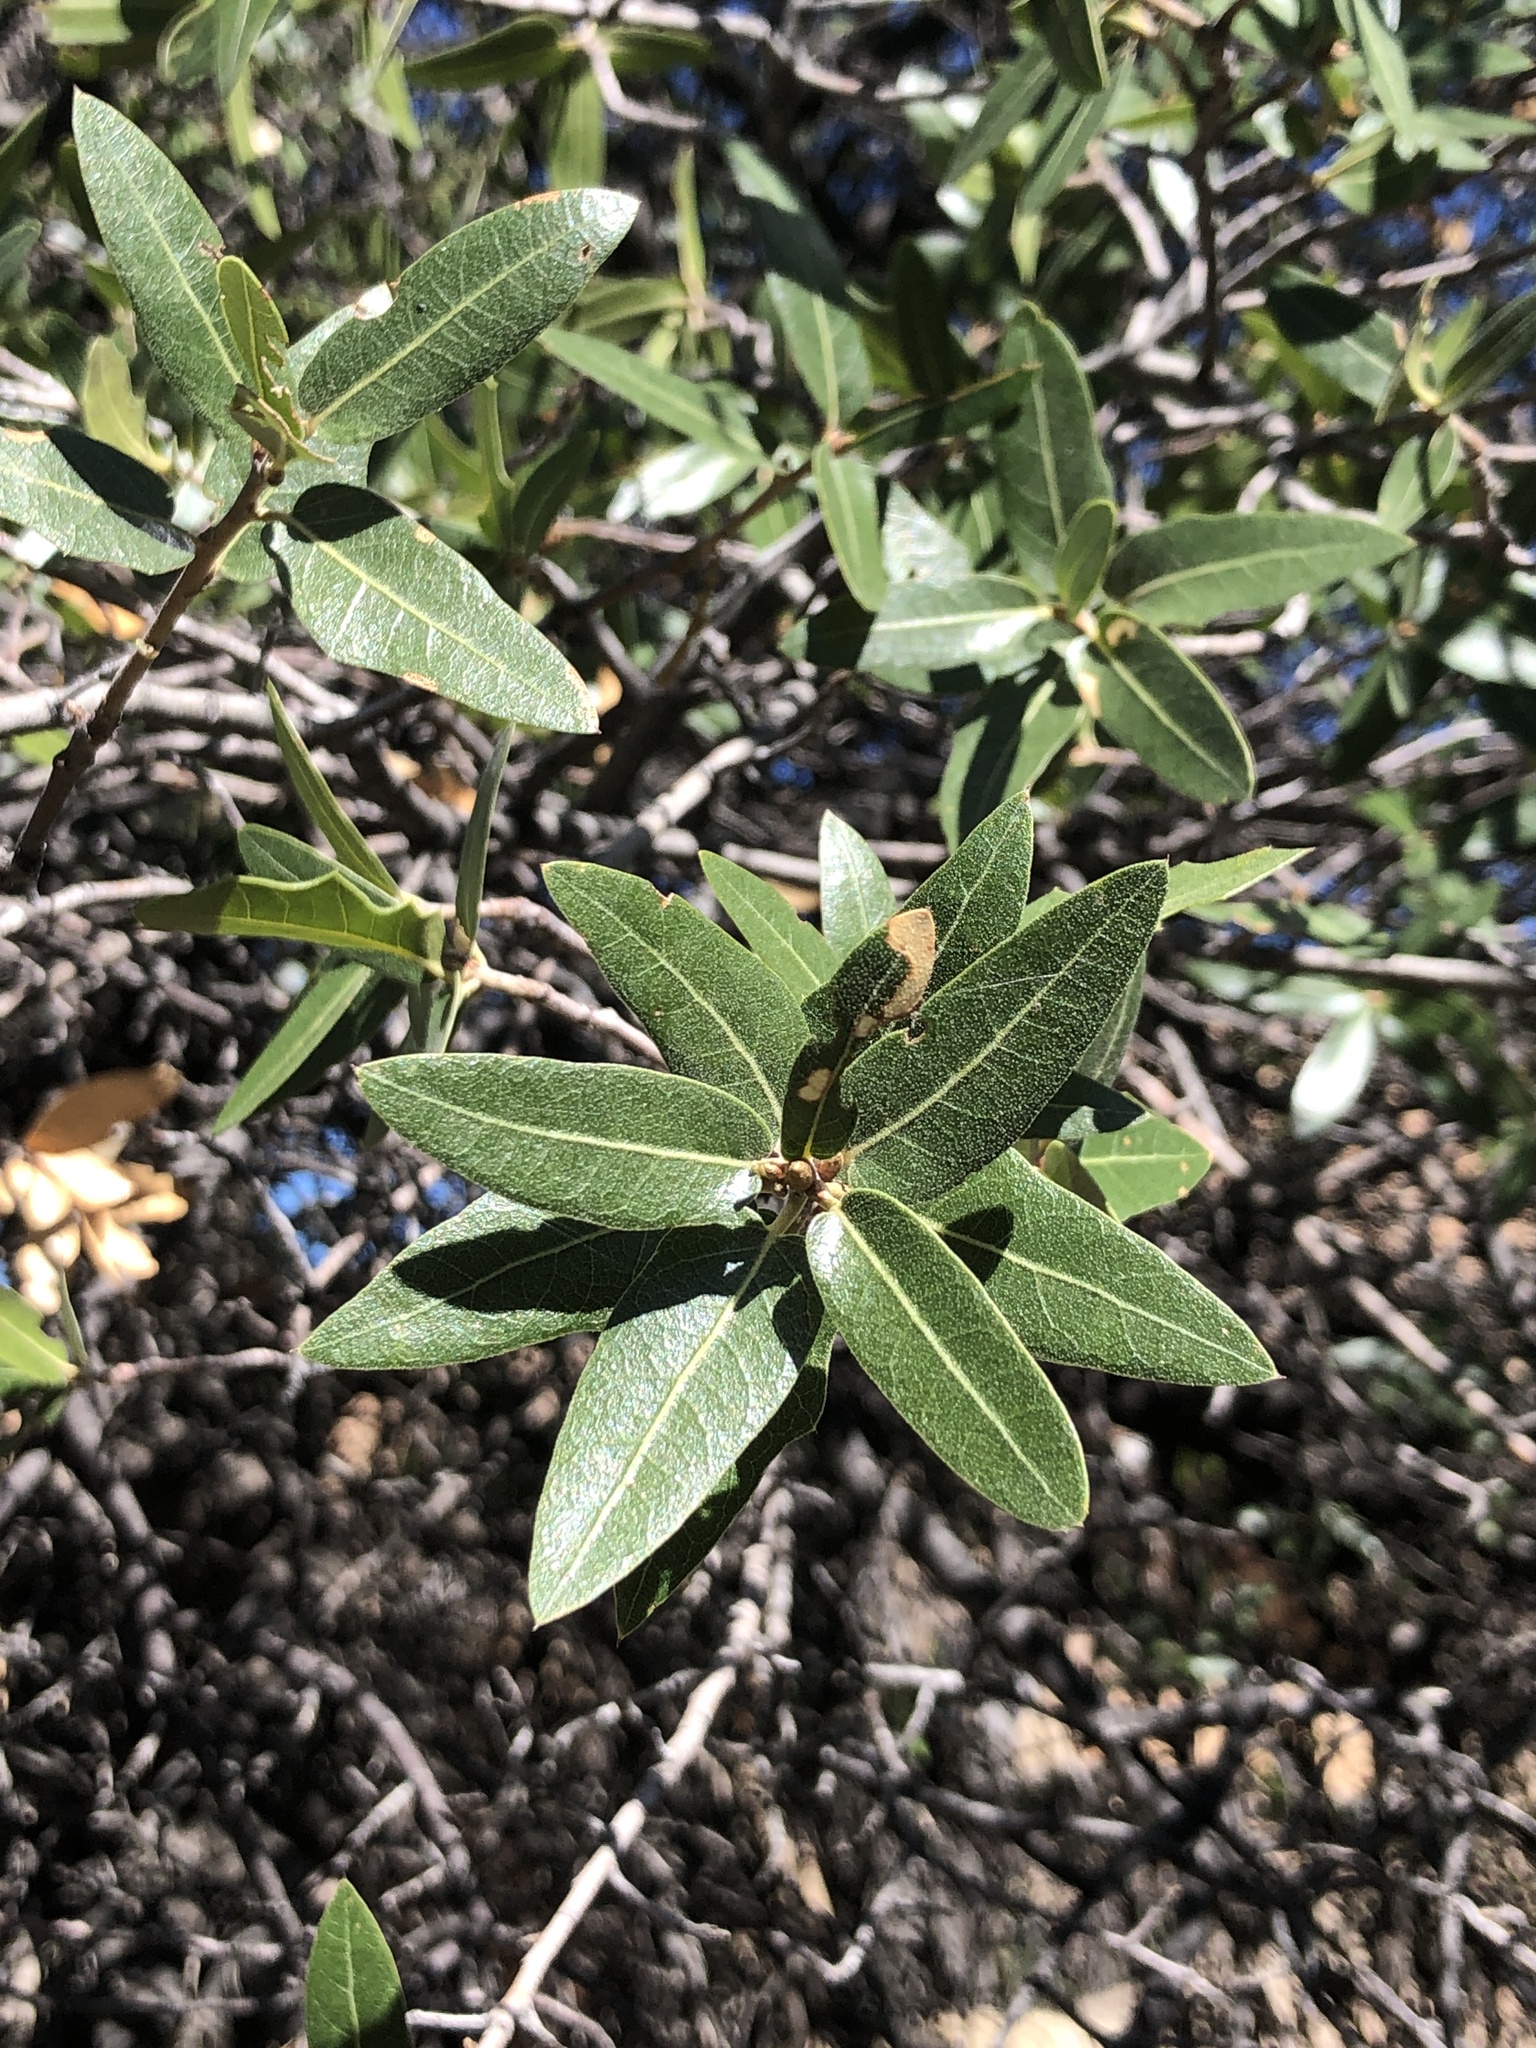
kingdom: Plantae
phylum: Tracheophyta
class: Magnoliopsida
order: Fagales
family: Fagaceae
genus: Quercus
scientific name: Quercus emoryi
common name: Emory oak
